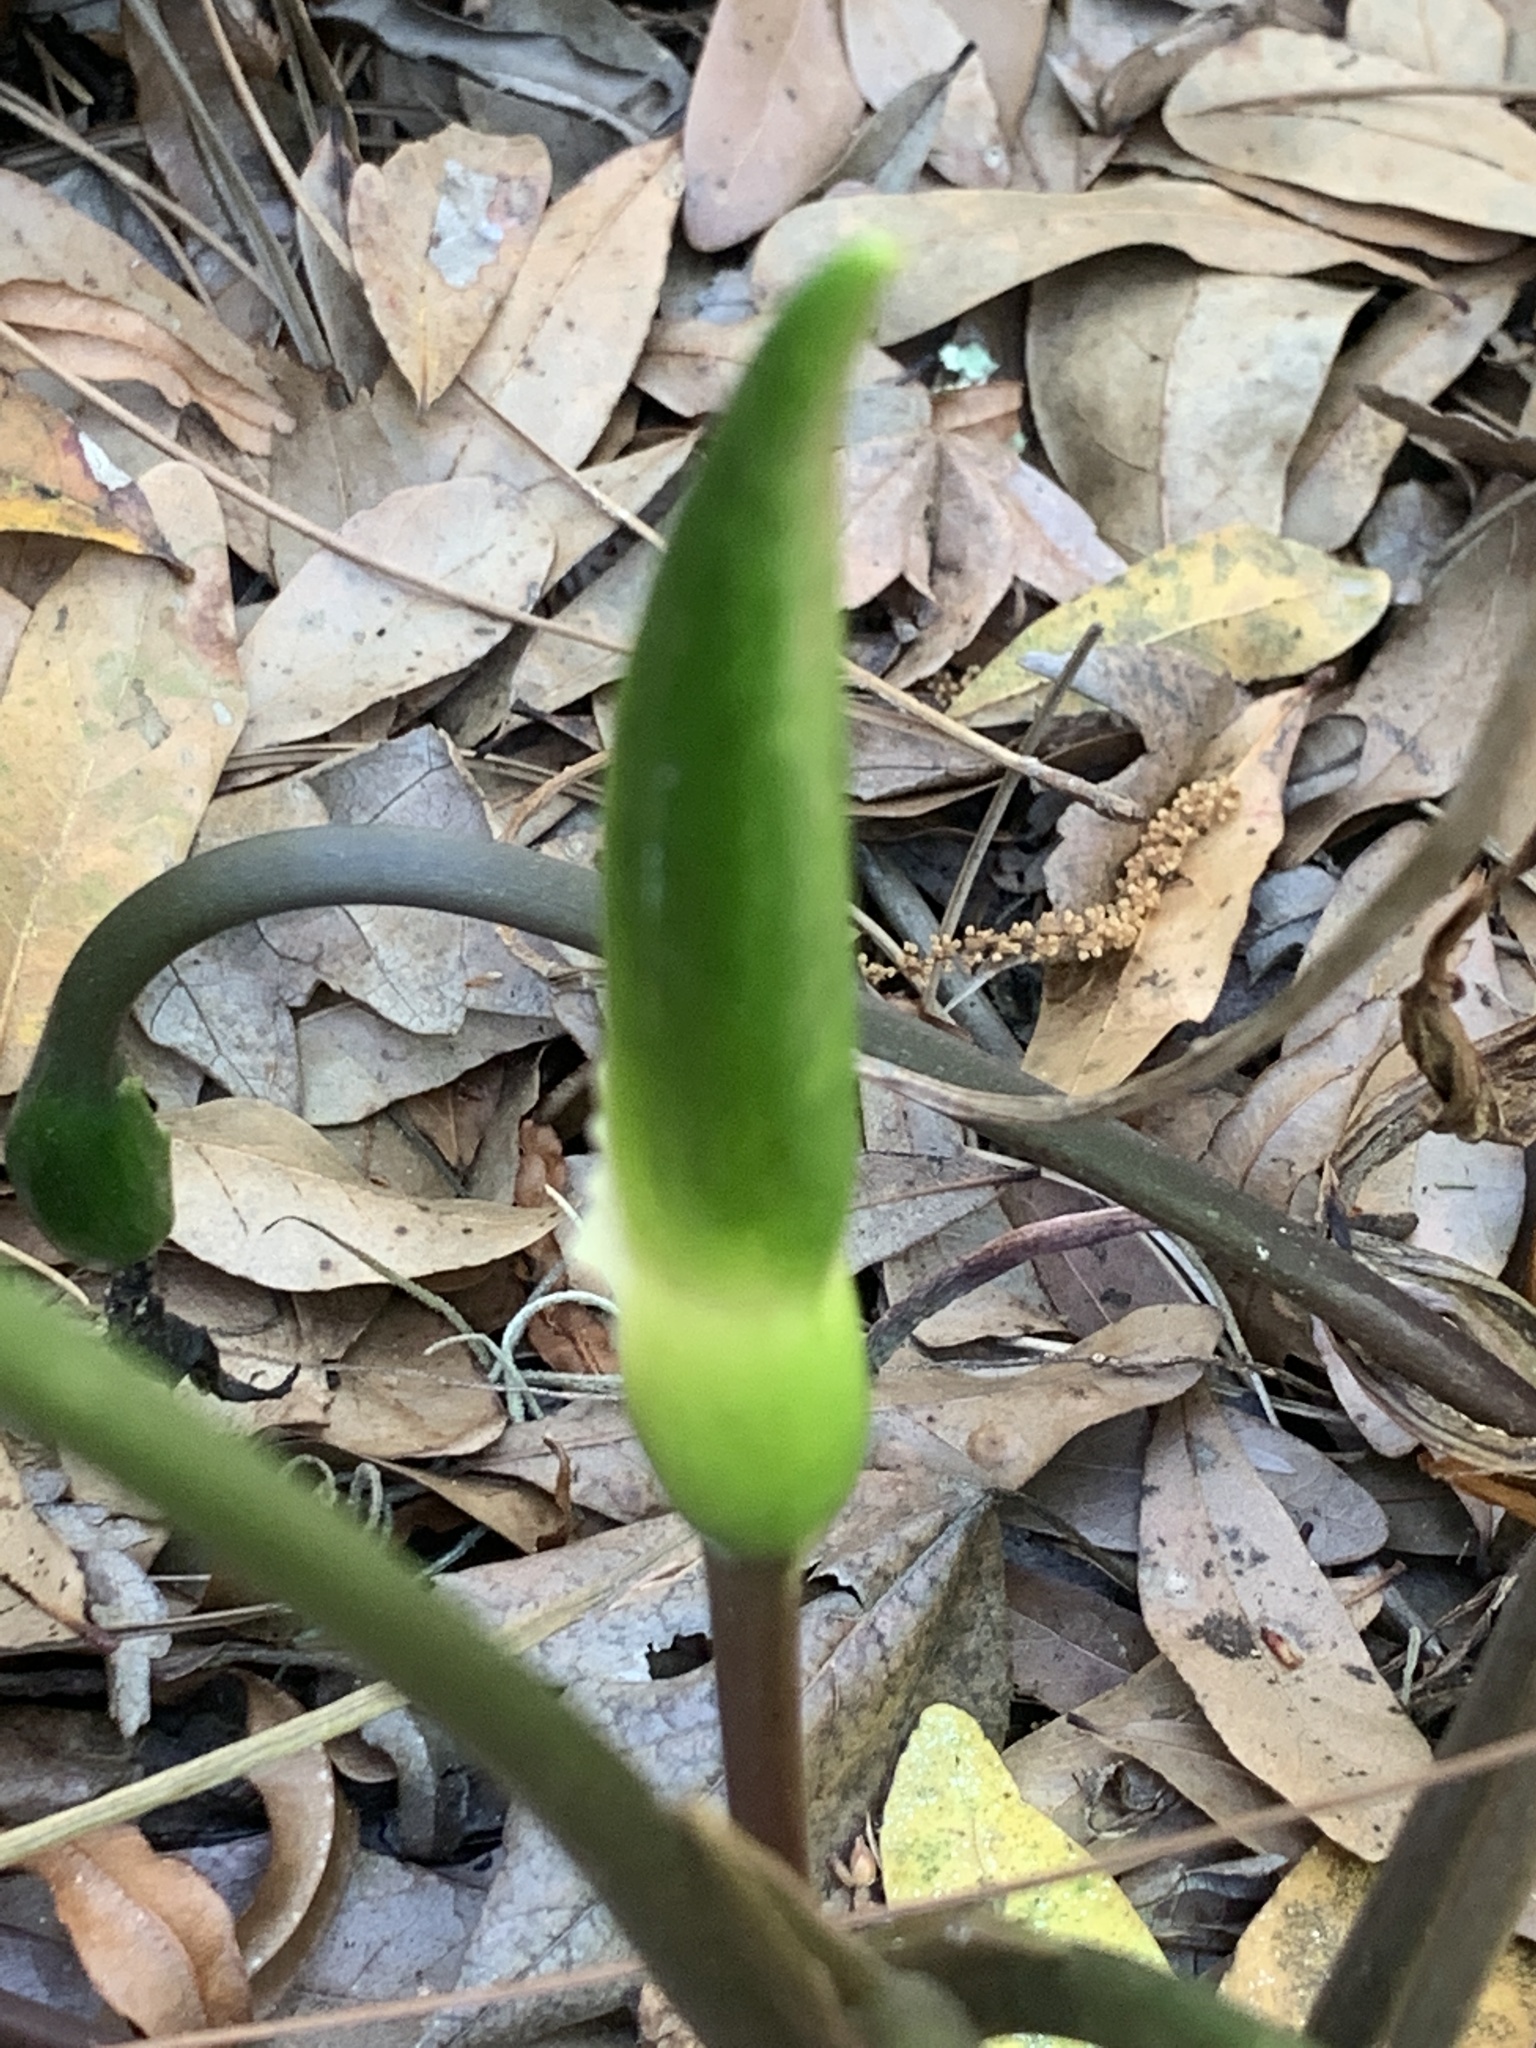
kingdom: Plantae
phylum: Tracheophyta
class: Liliopsida
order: Alismatales
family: Araceae
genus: Peltandra
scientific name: Peltandra virginica
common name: Arrow arum
